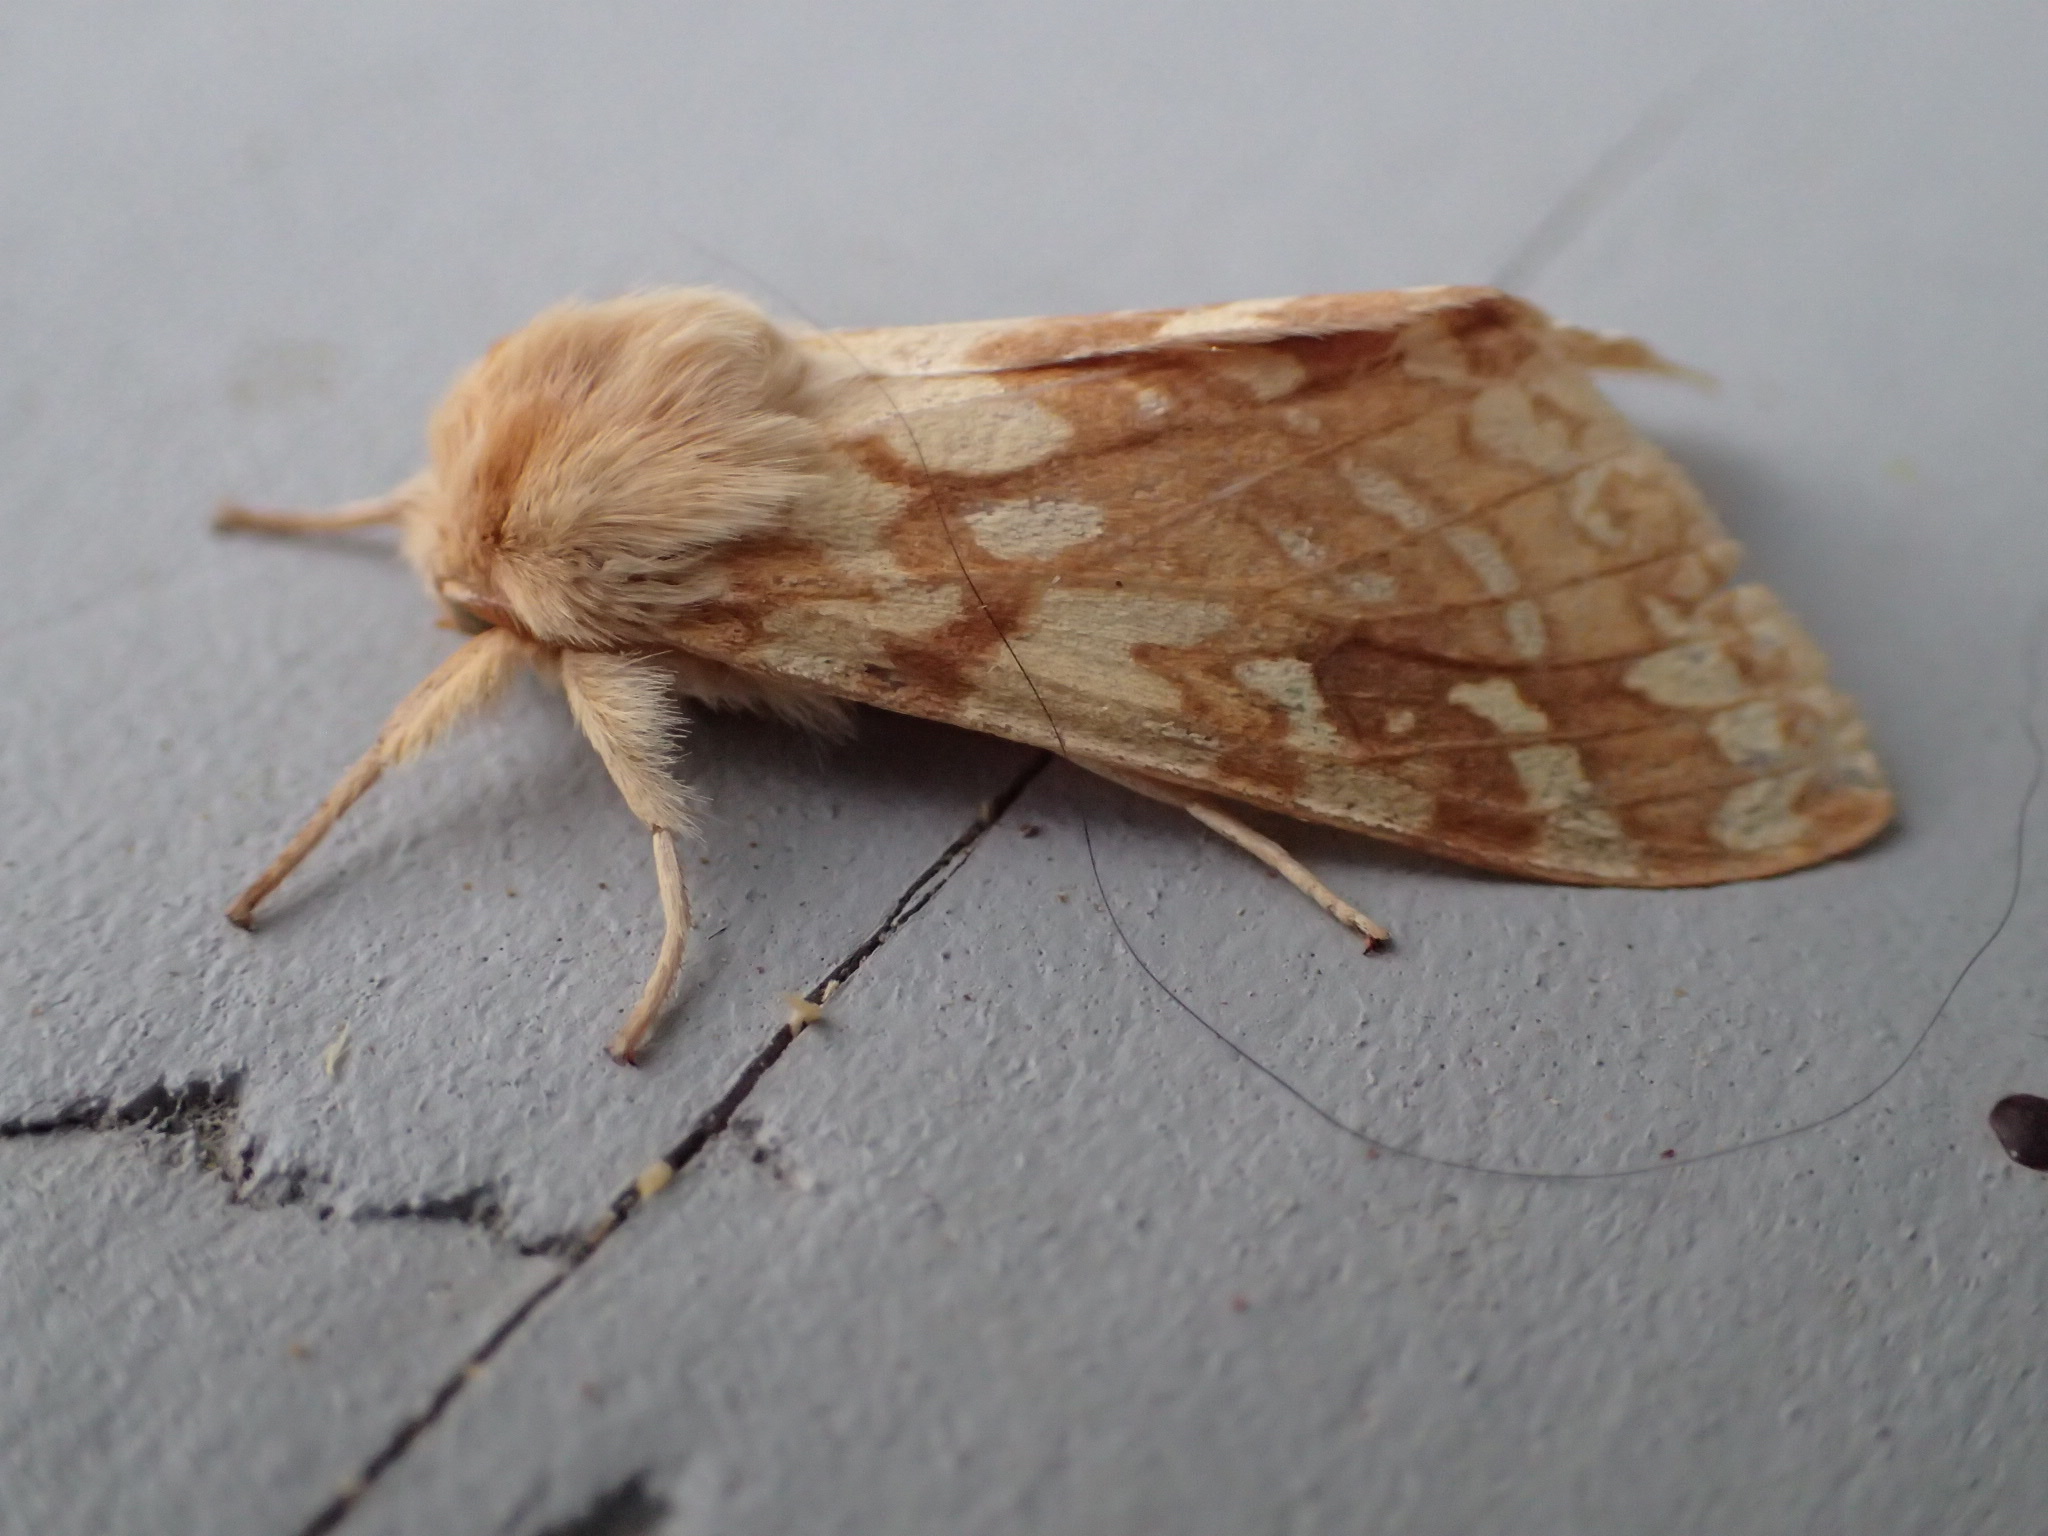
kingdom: Animalia
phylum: Arthropoda
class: Insecta
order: Lepidoptera
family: Erebidae
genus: Lophocampa
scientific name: Lophocampa maculata
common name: Spotted tussock moth
